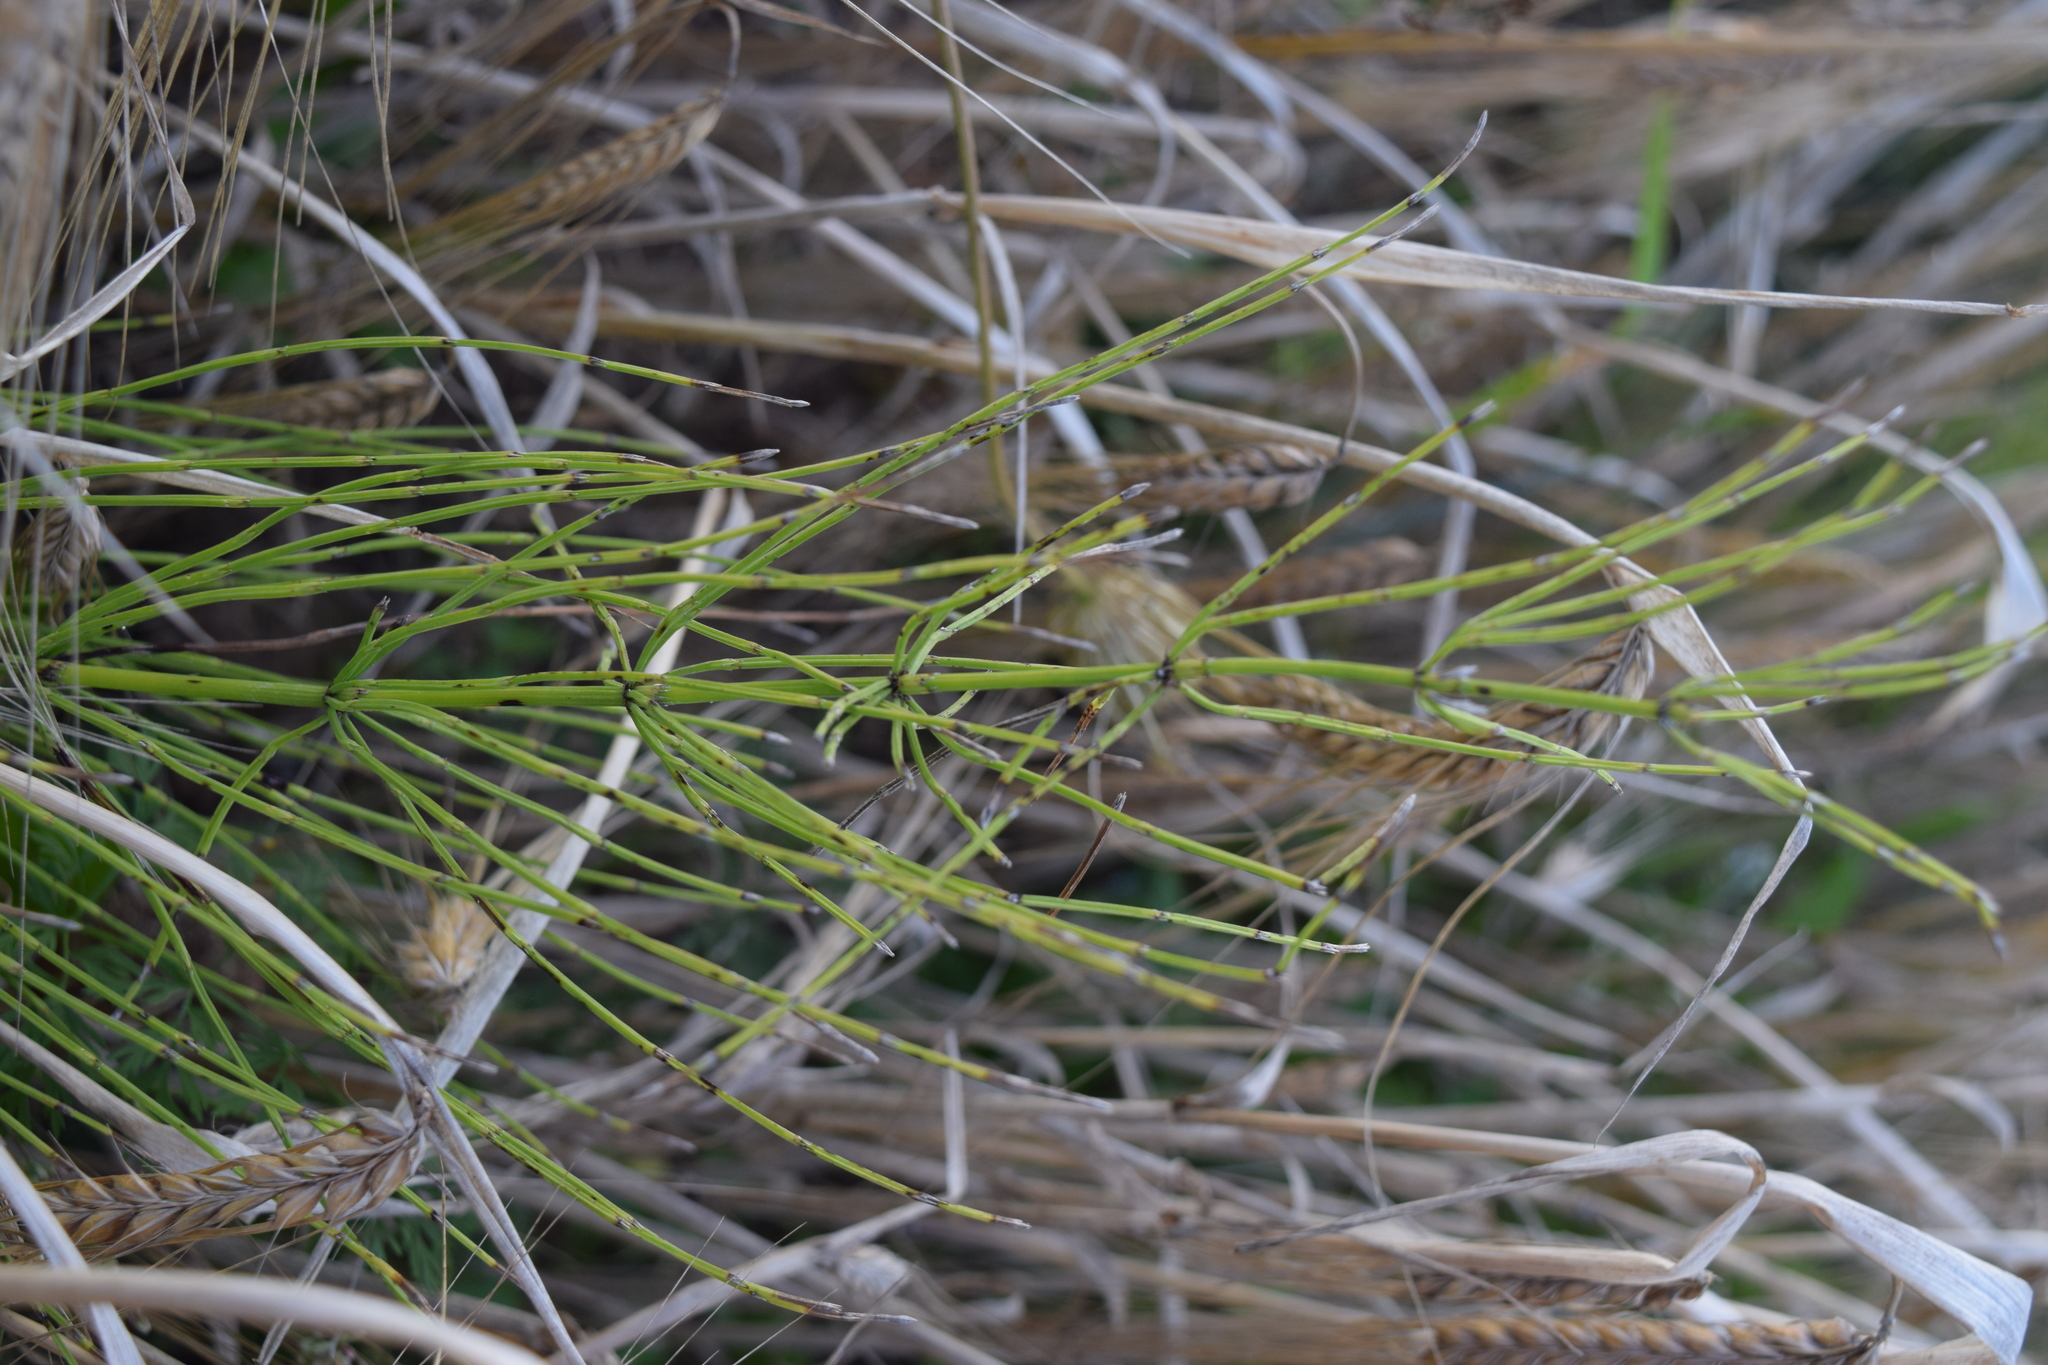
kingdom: Plantae
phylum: Tracheophyta
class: Polypodiopsida
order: Equisetales
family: Equisetaceae
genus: Equisetum
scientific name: Equisetum palustre
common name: Marsh horsetail
